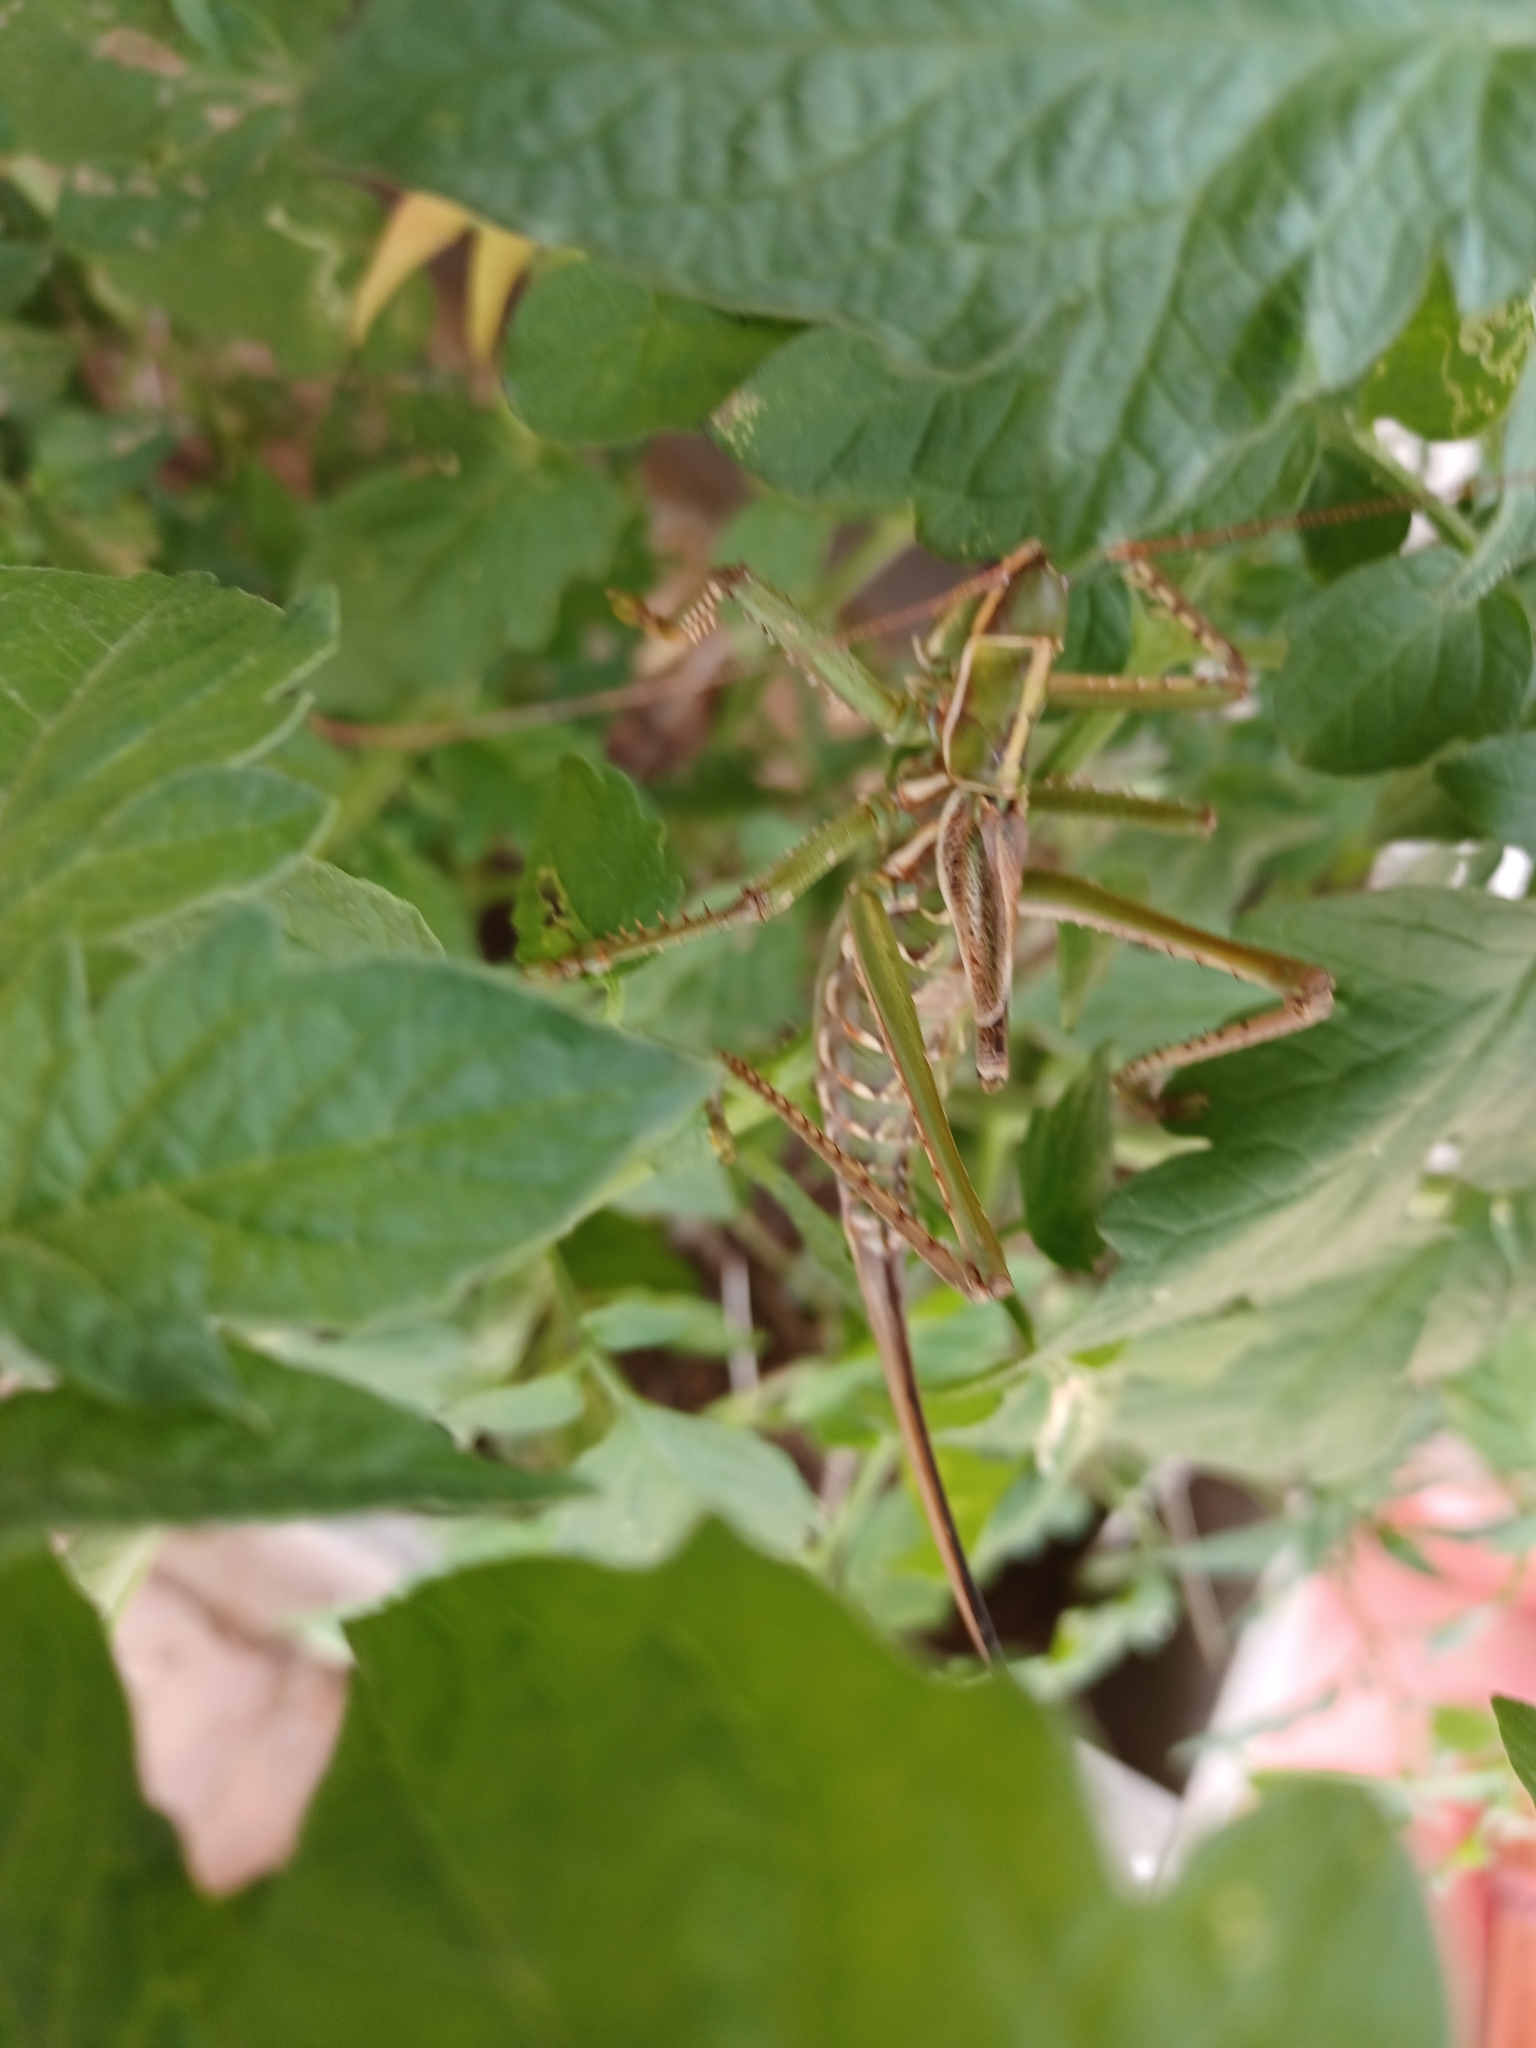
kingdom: Animalia
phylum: Arthropoda
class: Insecta
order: Orthoptera
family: Tettigoniidae
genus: Clonia
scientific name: Clonia melanoptera
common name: Giant black-winged clonia
